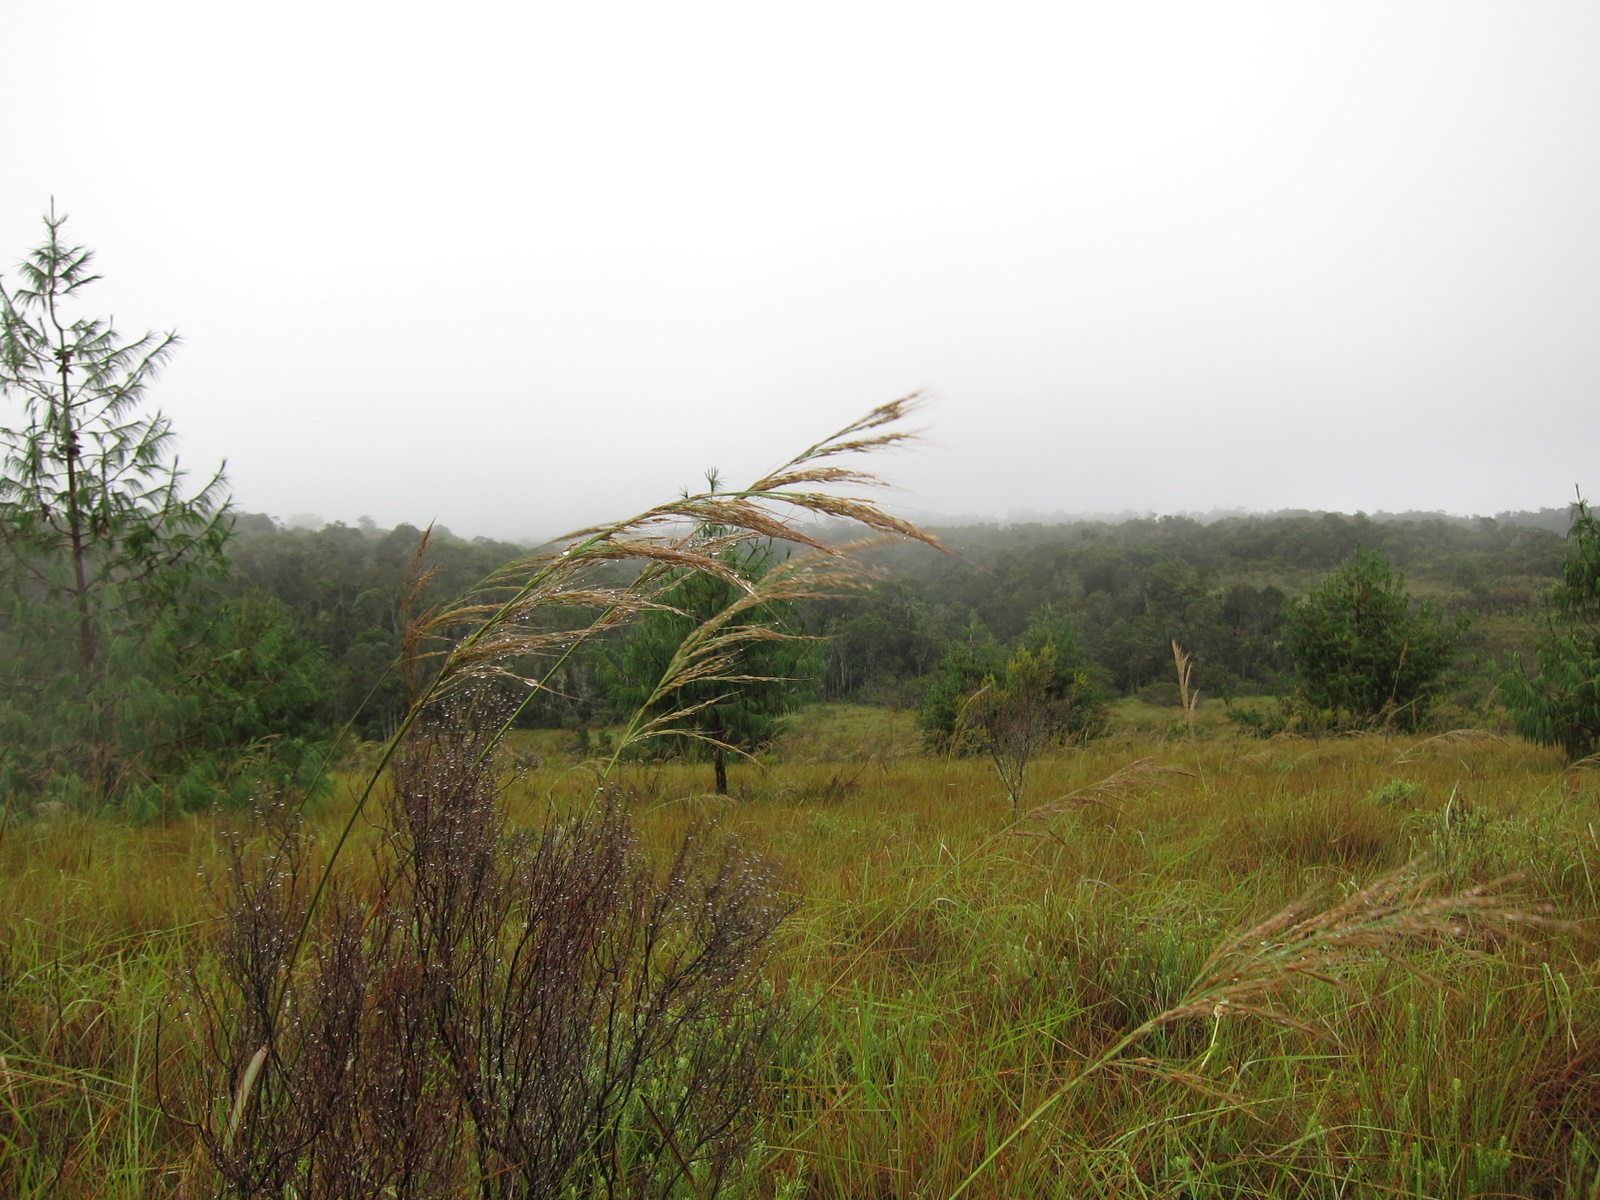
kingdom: Plantae
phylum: Tracheophyta
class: Liliopsida
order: Poales
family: Poaceae
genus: Loudetia
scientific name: Loudetia simplex
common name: Common russet grass
